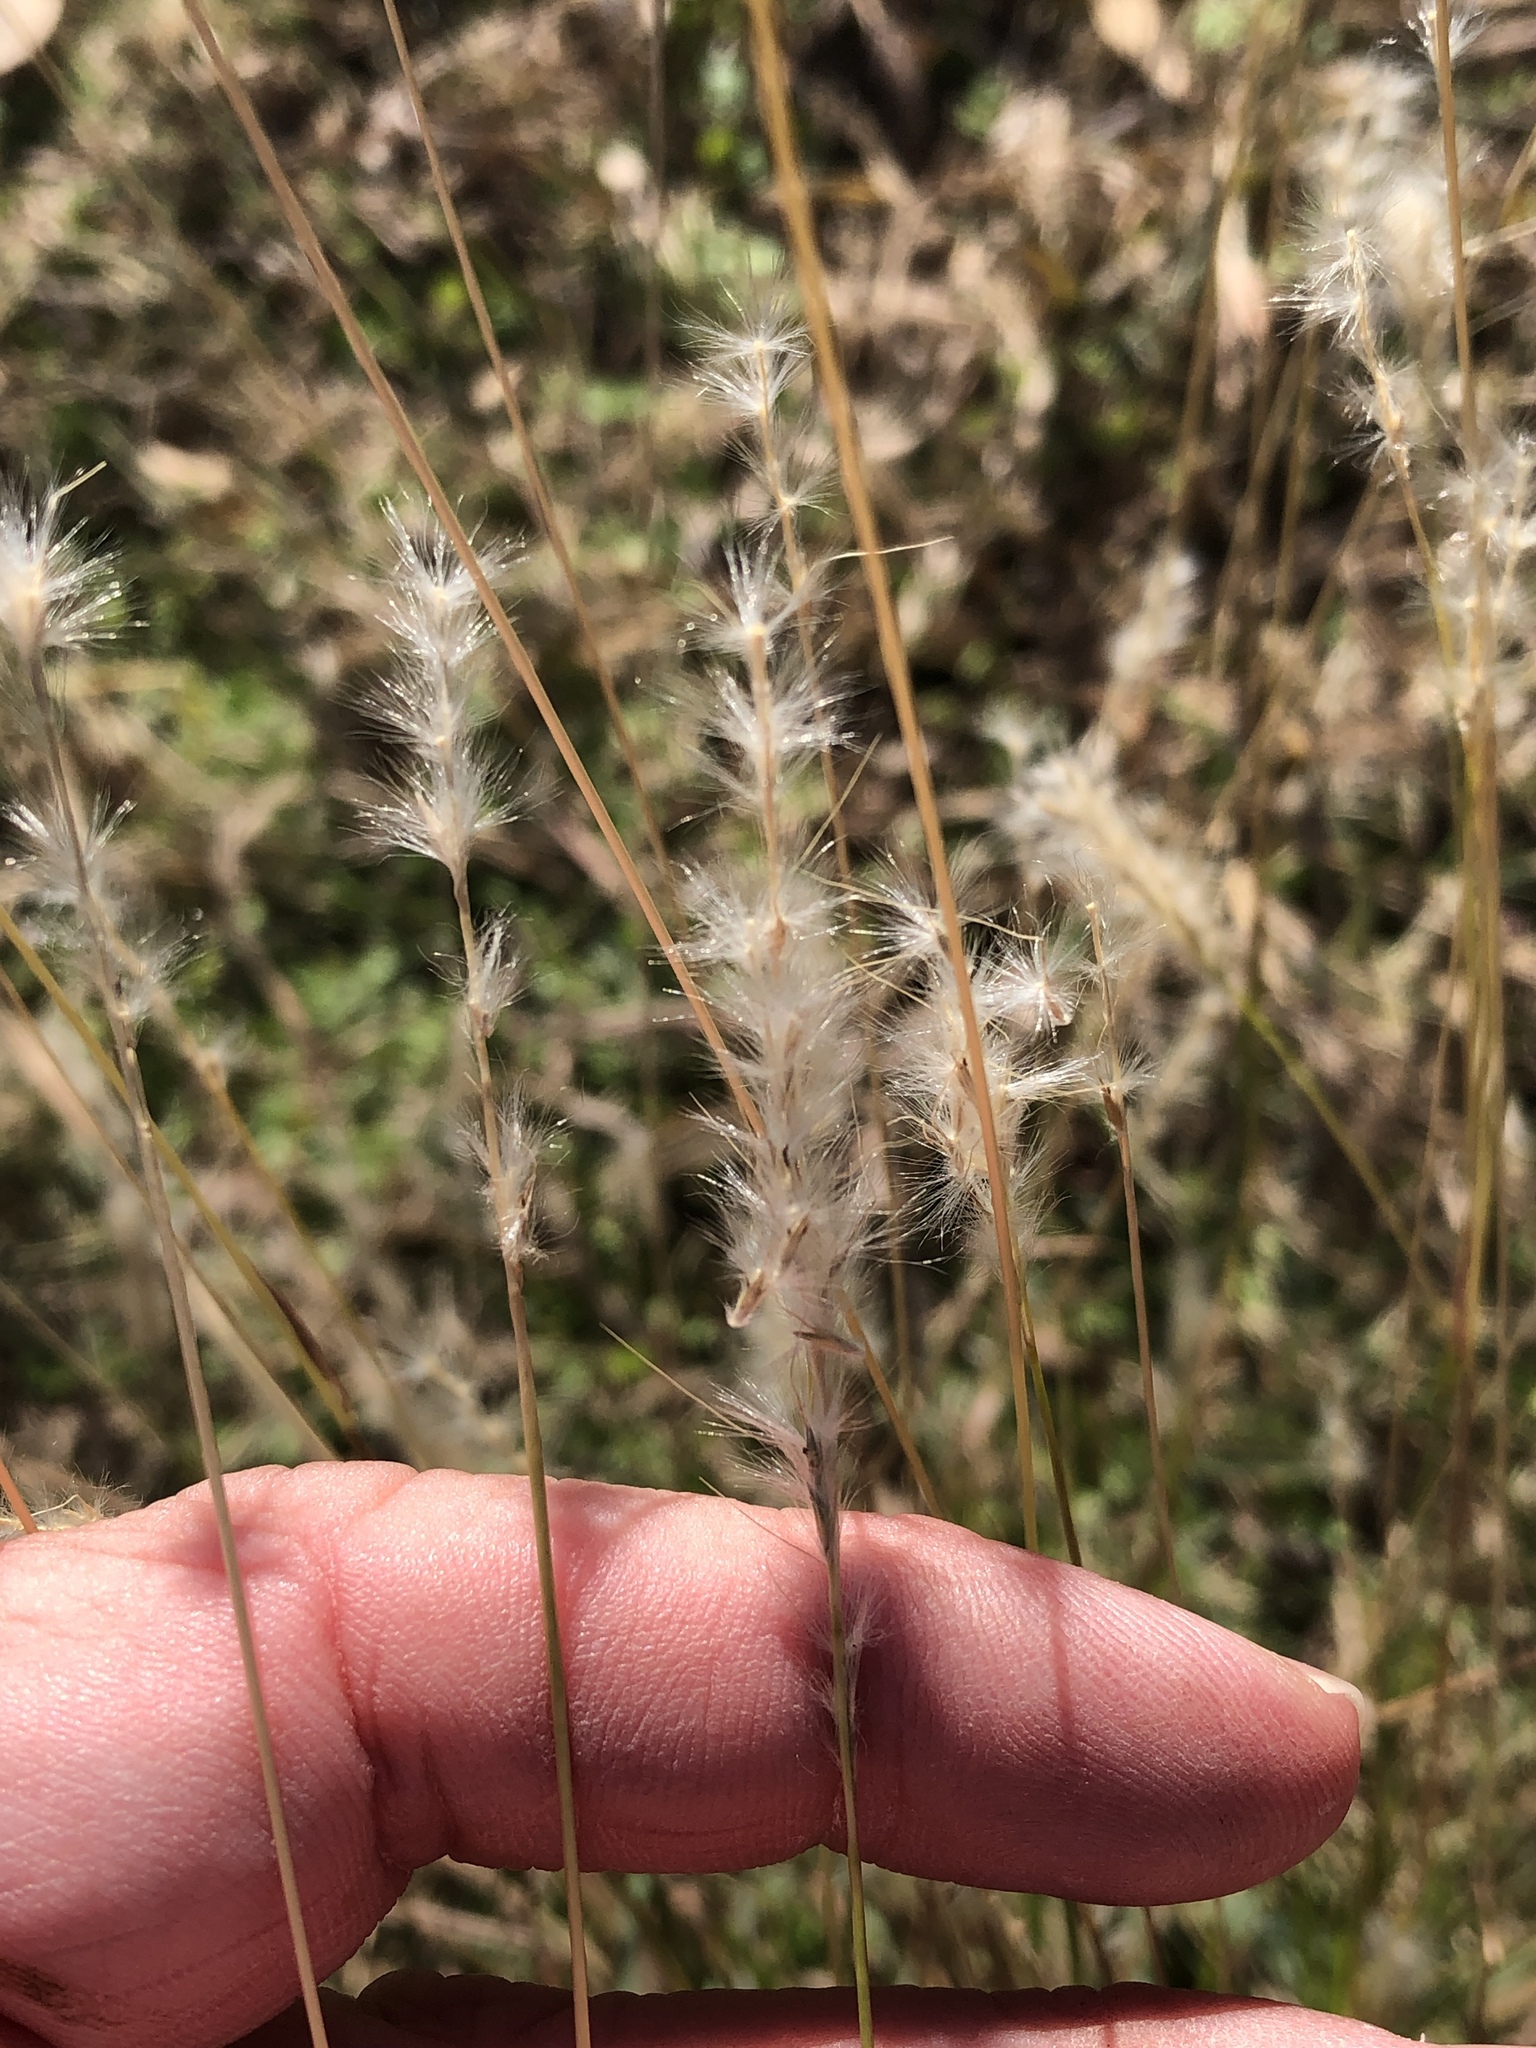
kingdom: Plantae
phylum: Tracheophyta
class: Liliopsida
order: Poales
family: Poaceae
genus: Bothriochloa
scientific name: Bothriochloa torreyana
